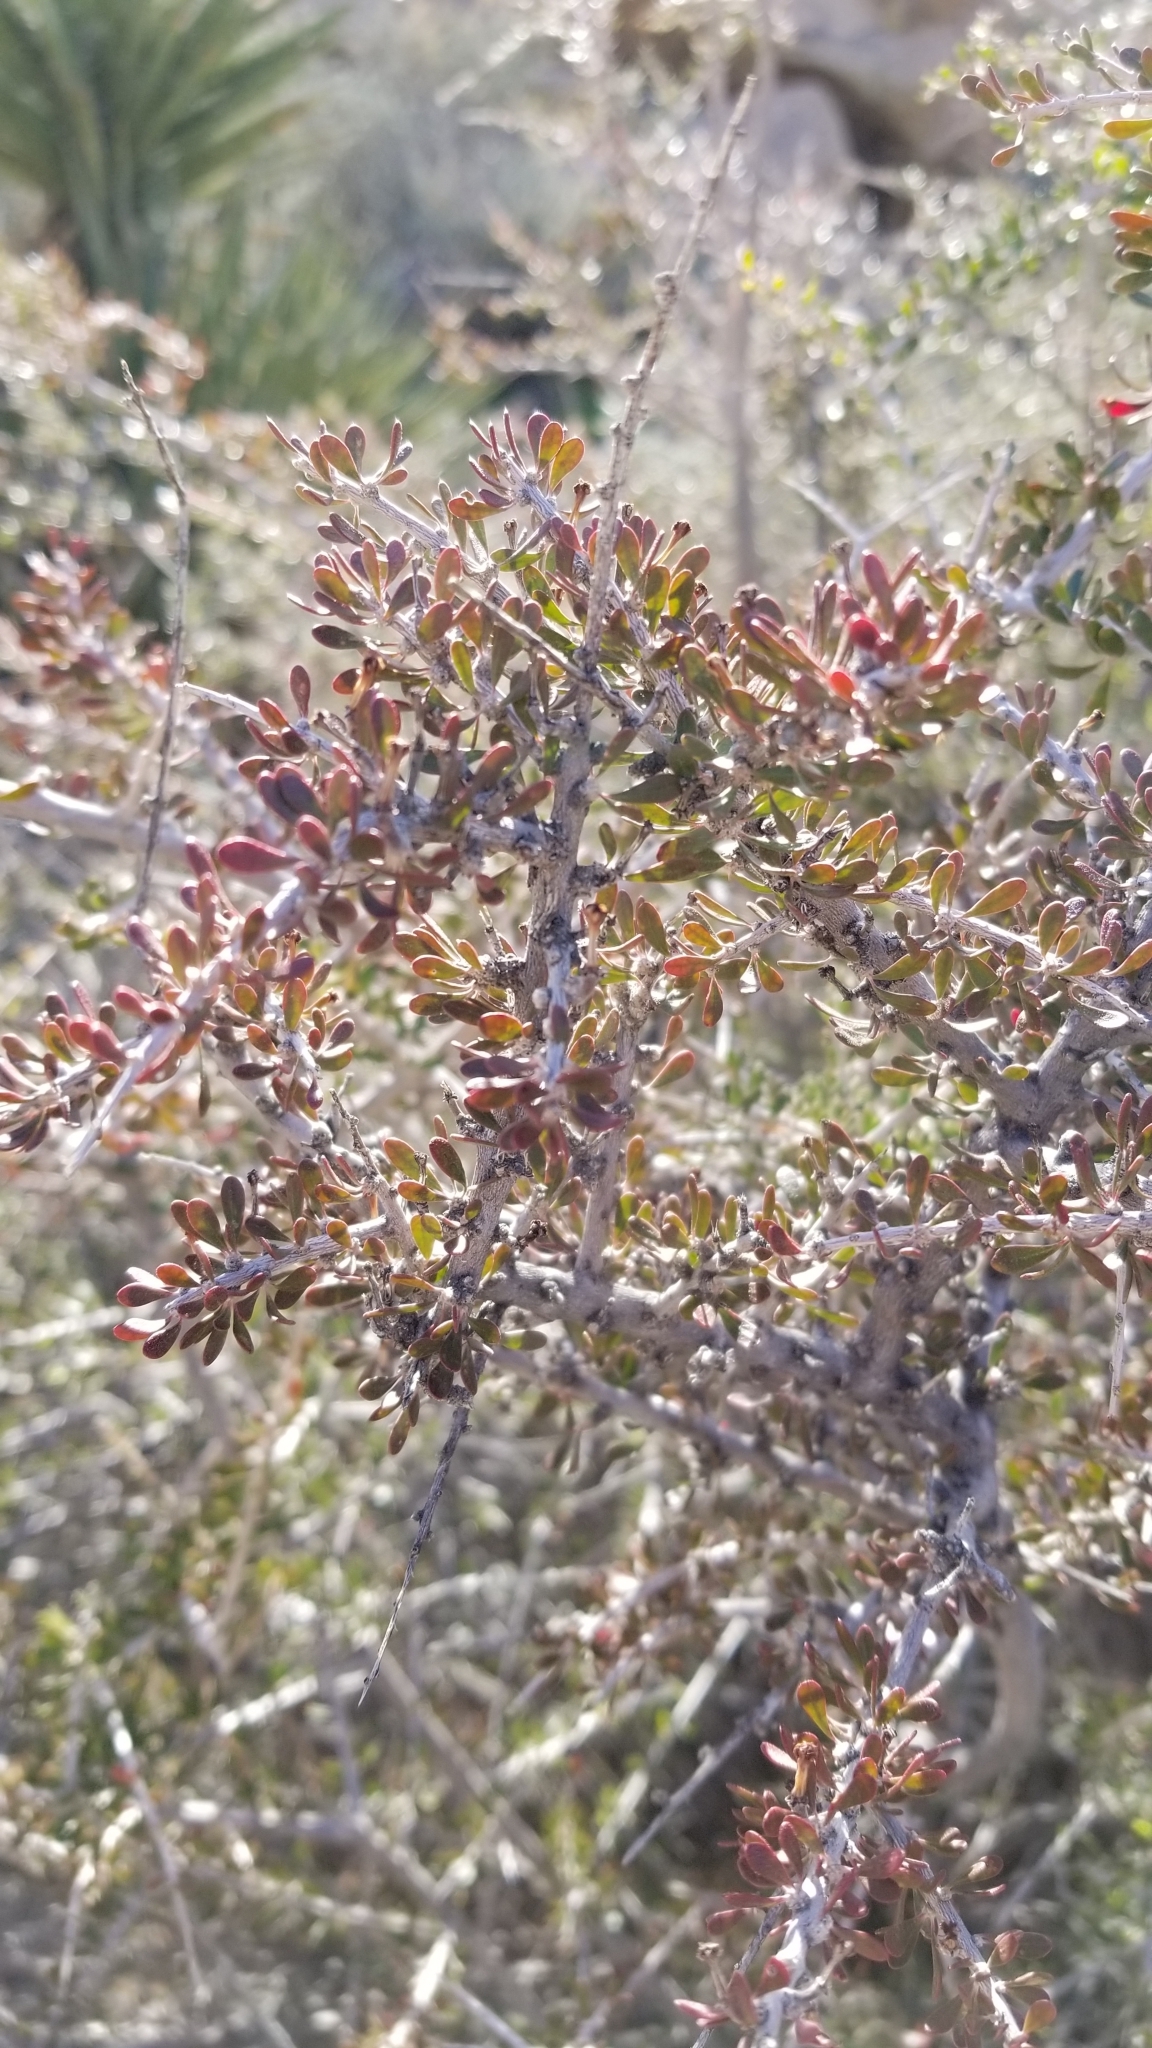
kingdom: Plantae
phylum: Tracheophyta
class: Magnoliopsida
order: Malpighiales
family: Picrodendraceae
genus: Tetracoccus
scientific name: Tetracoccus hallii
